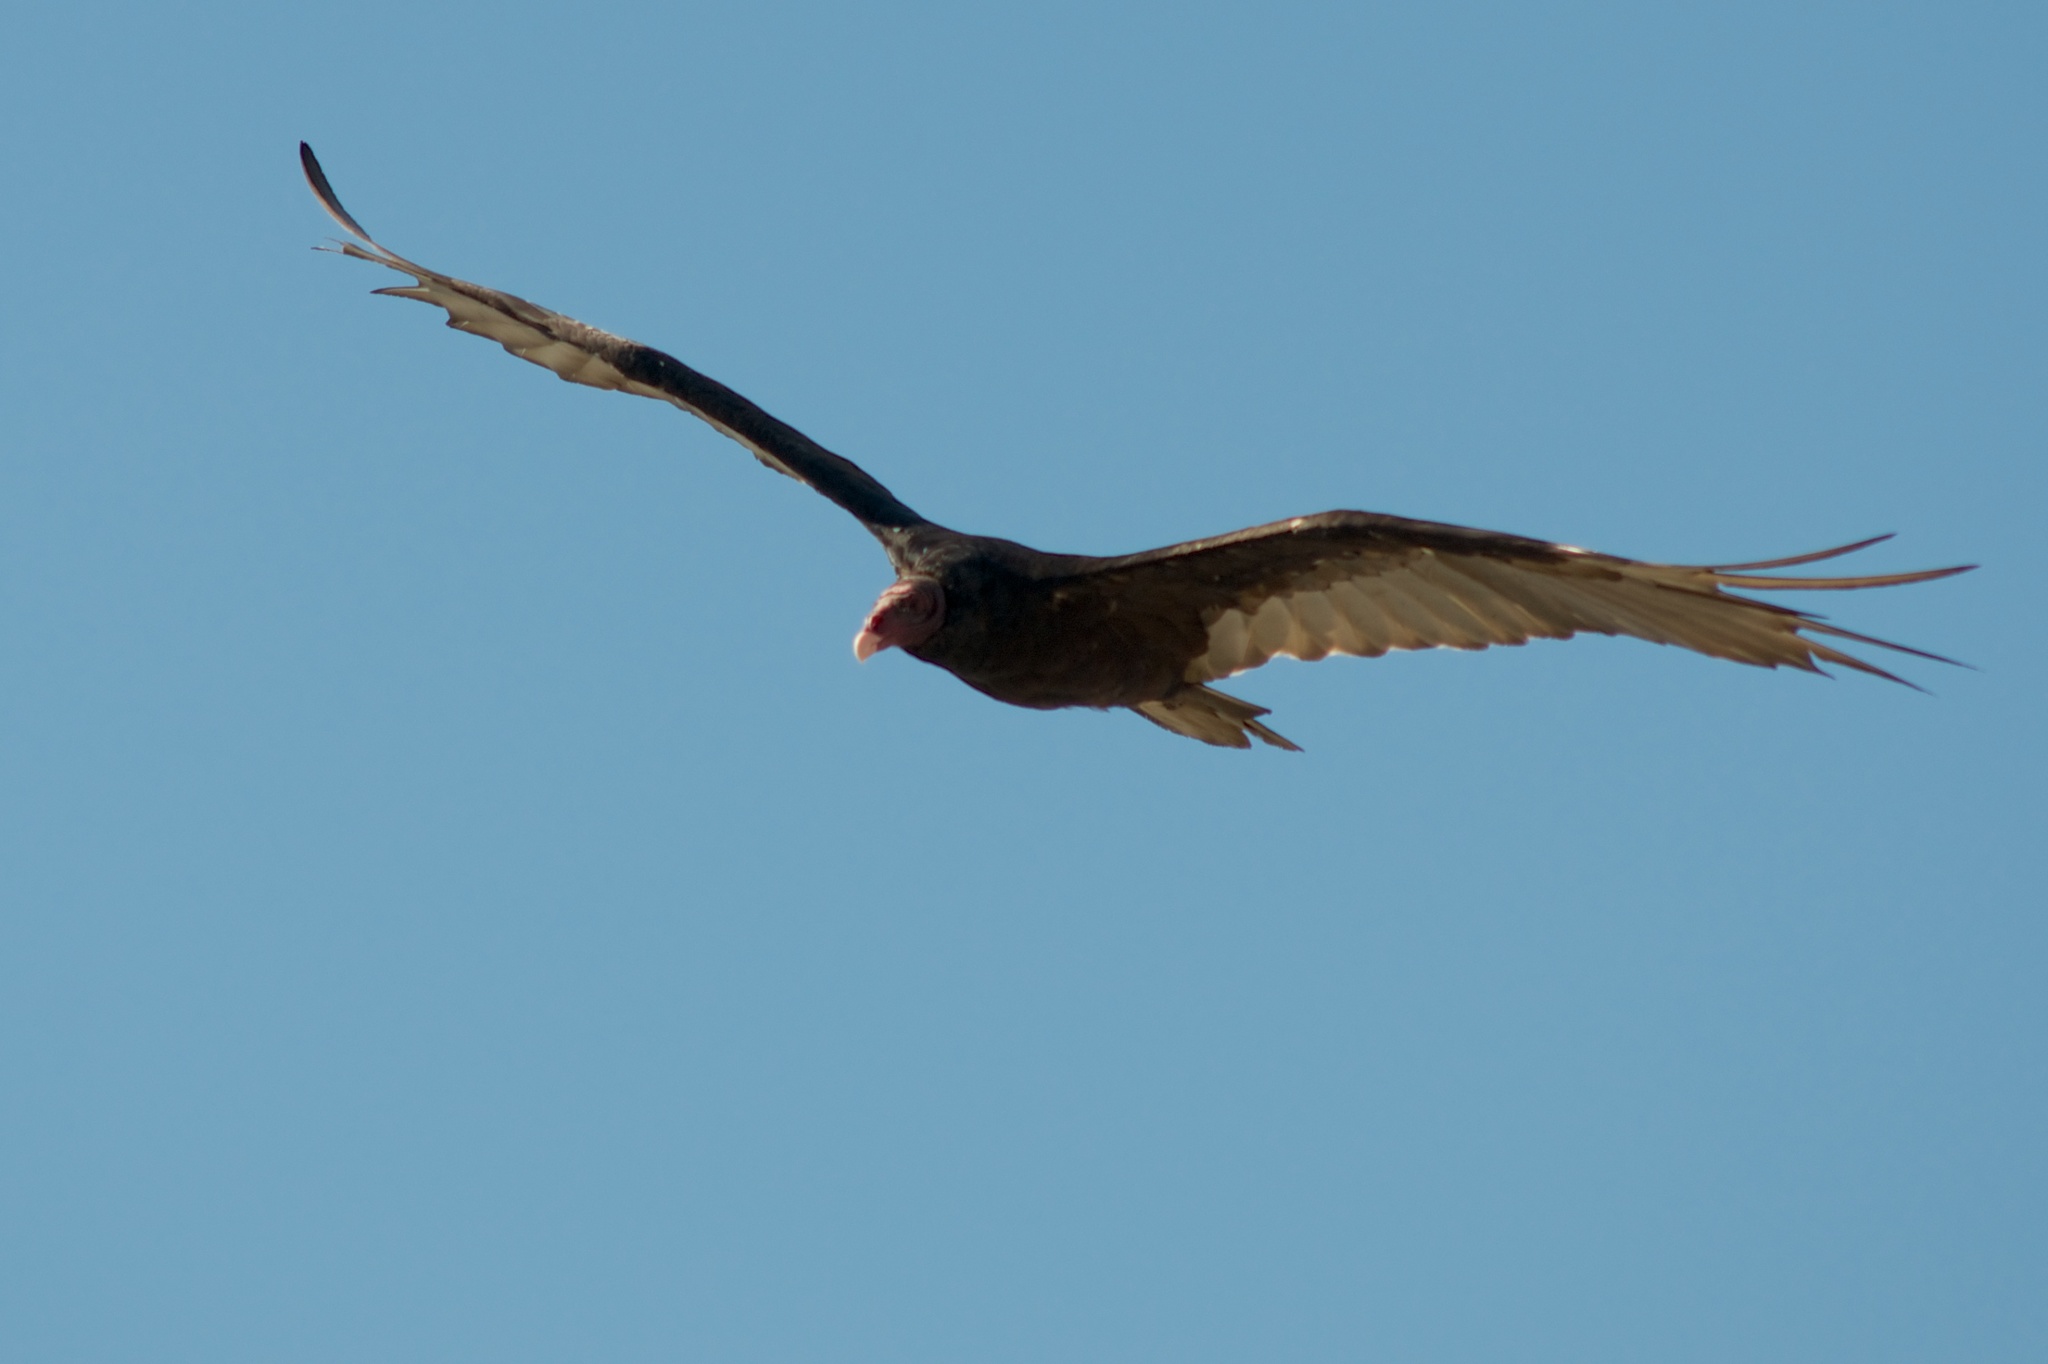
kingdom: Animalia
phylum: Chordata
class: Aves
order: Accipitriformes
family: Cathartidae
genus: Cathartes
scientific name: Cathartes aura
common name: Turkey vulture
